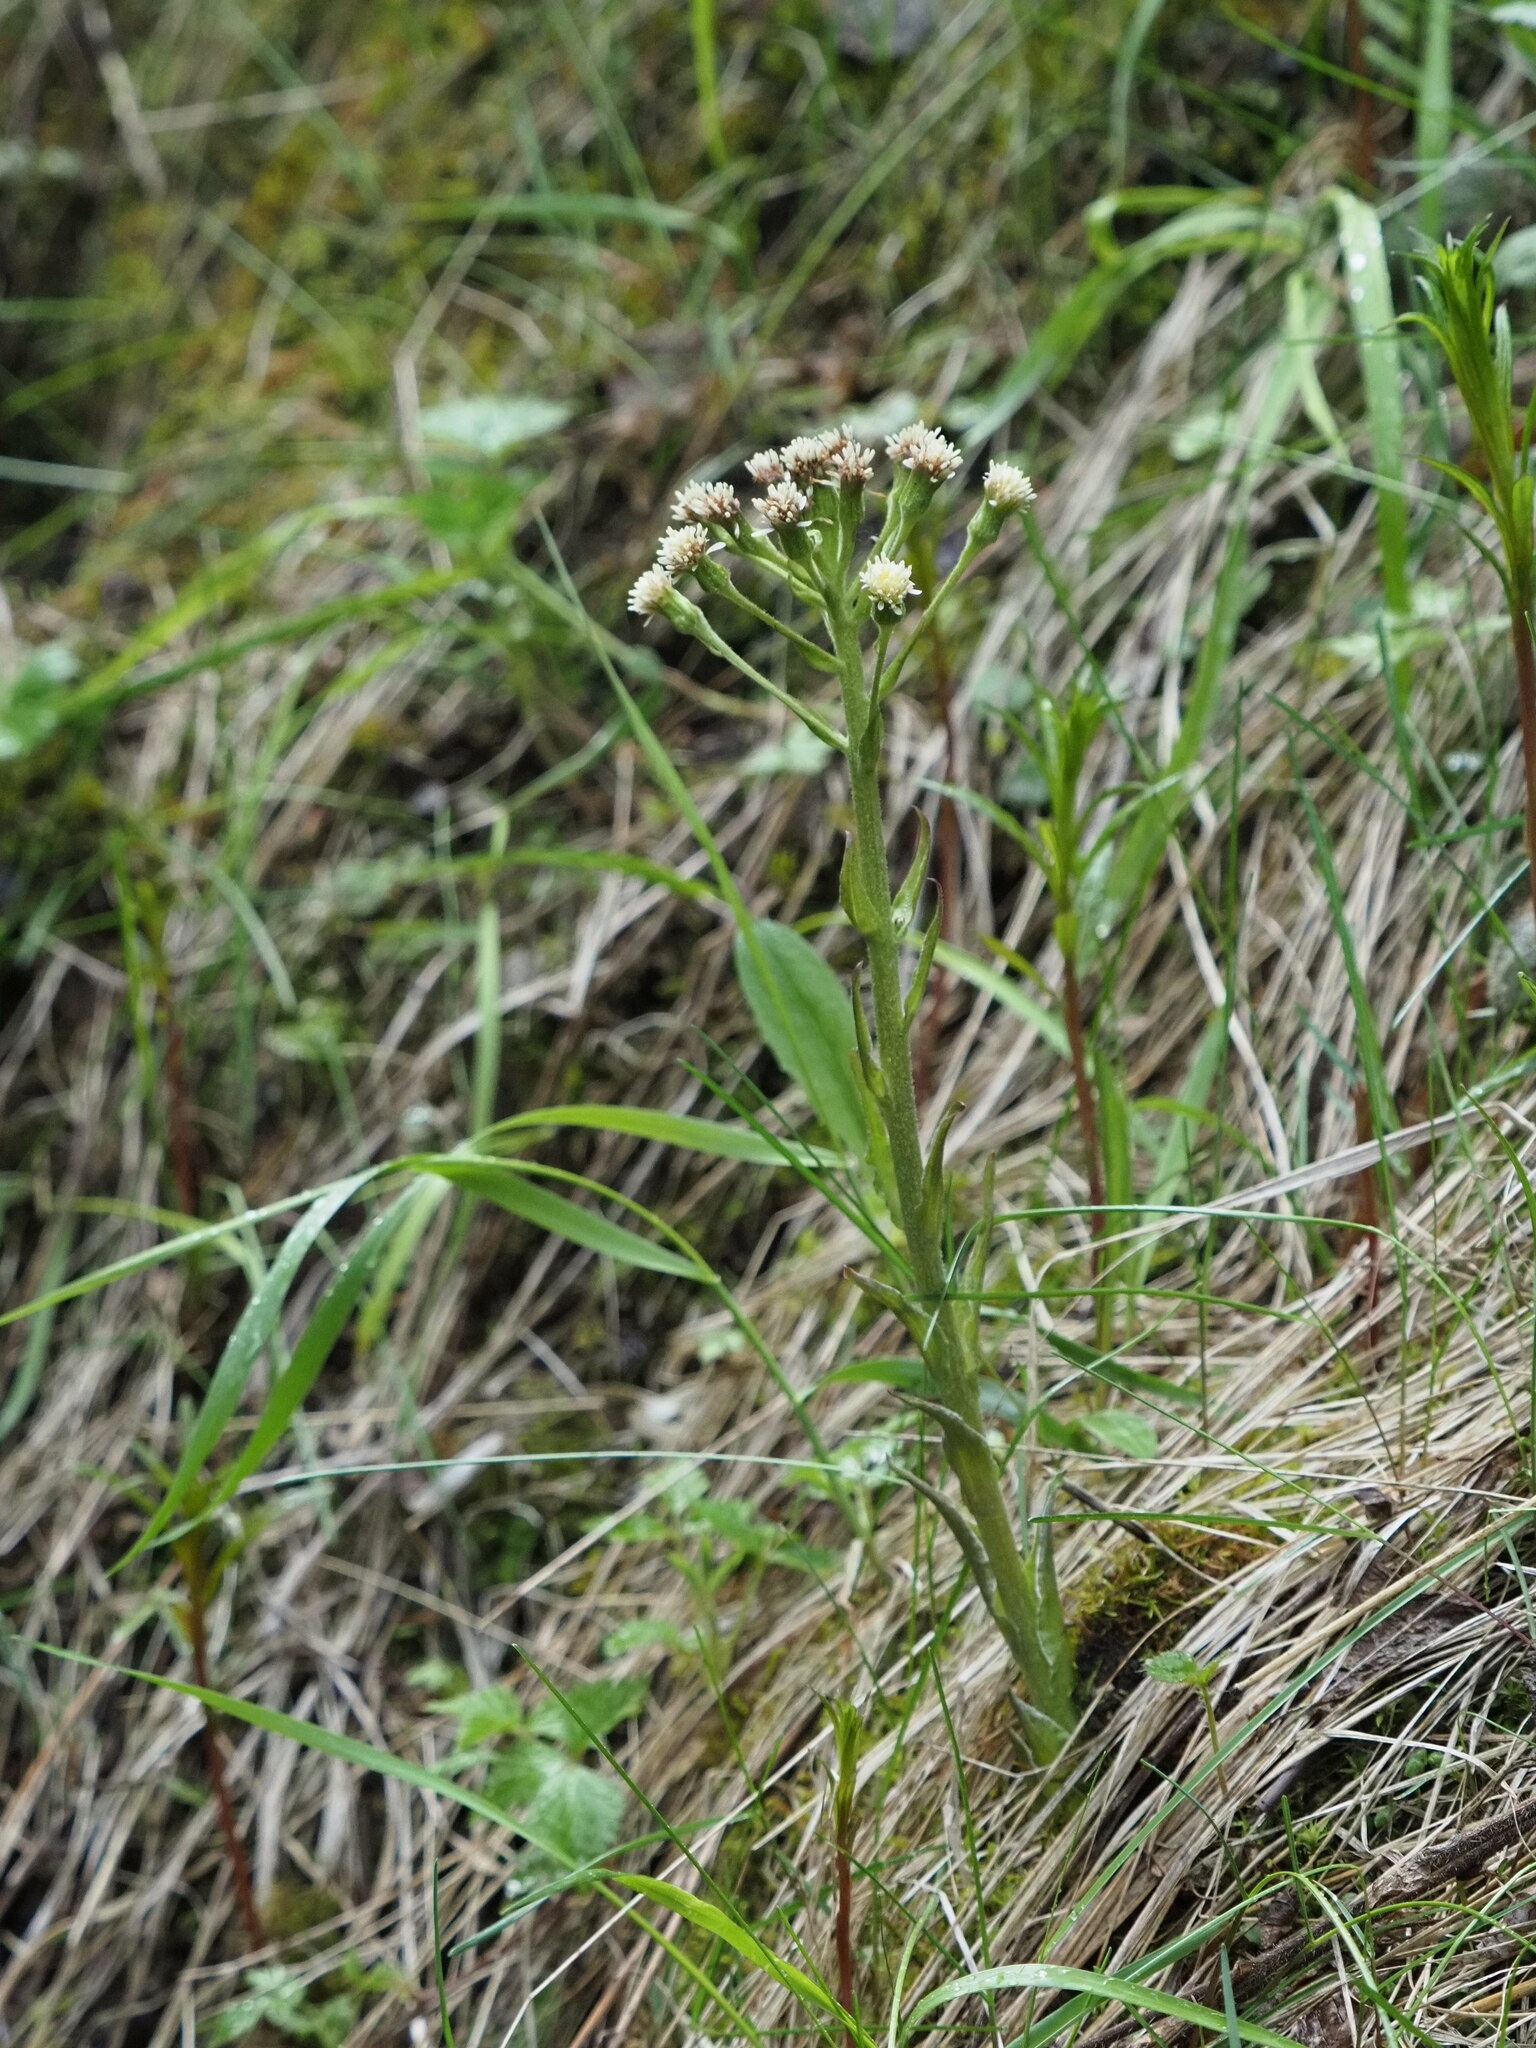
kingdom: Plantae
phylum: Tracheophyta
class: Magnoliopsida
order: Asterales
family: Asteraceae
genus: Petasites
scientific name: Petasites frigidus
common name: Arctic butterbur
